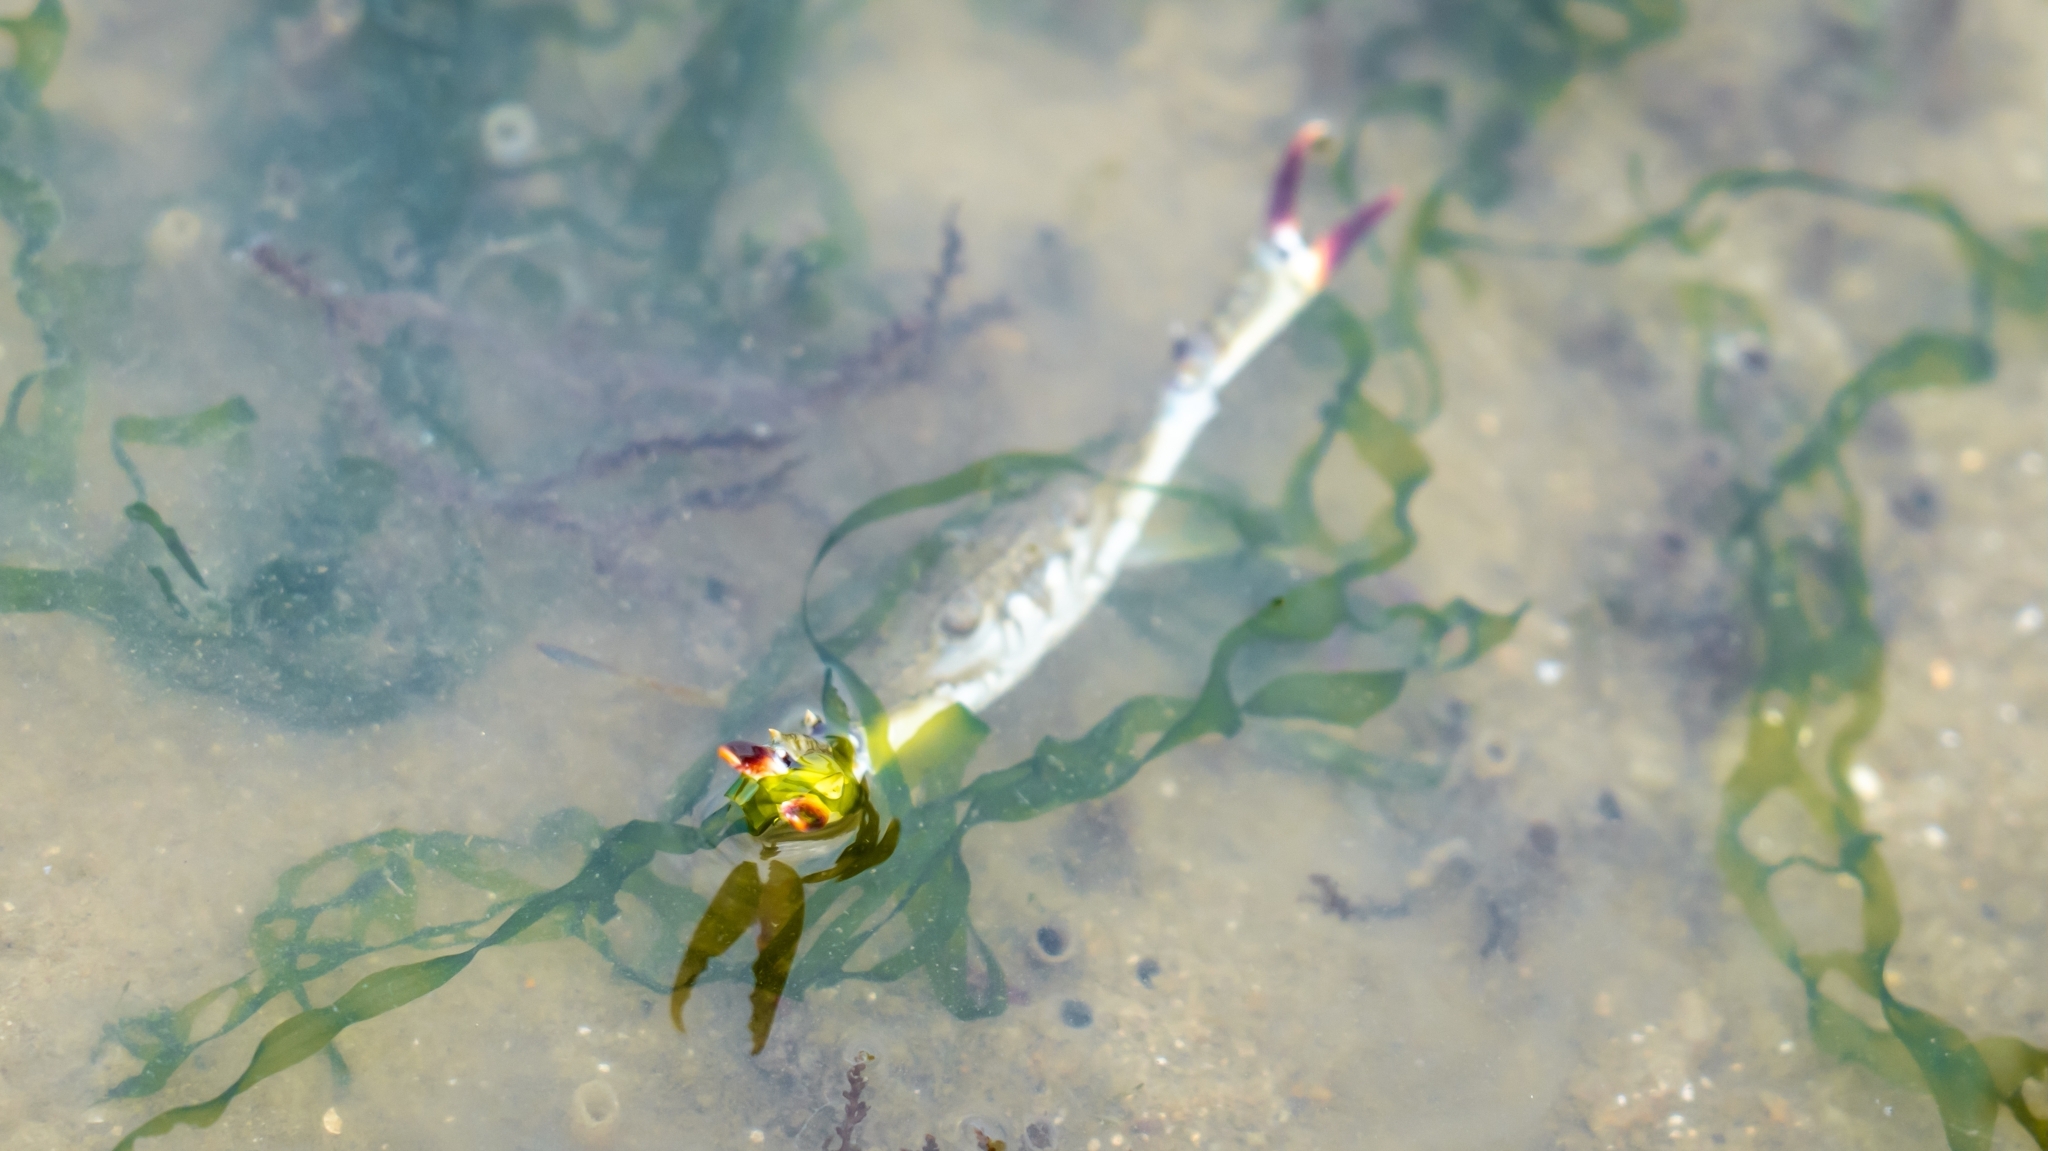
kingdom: Animalia
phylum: Arthropoda
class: Malacostraca
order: Decapoda
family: Portunidae
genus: Portunus
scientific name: Portunus pelagicus
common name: Blue swimming crab
